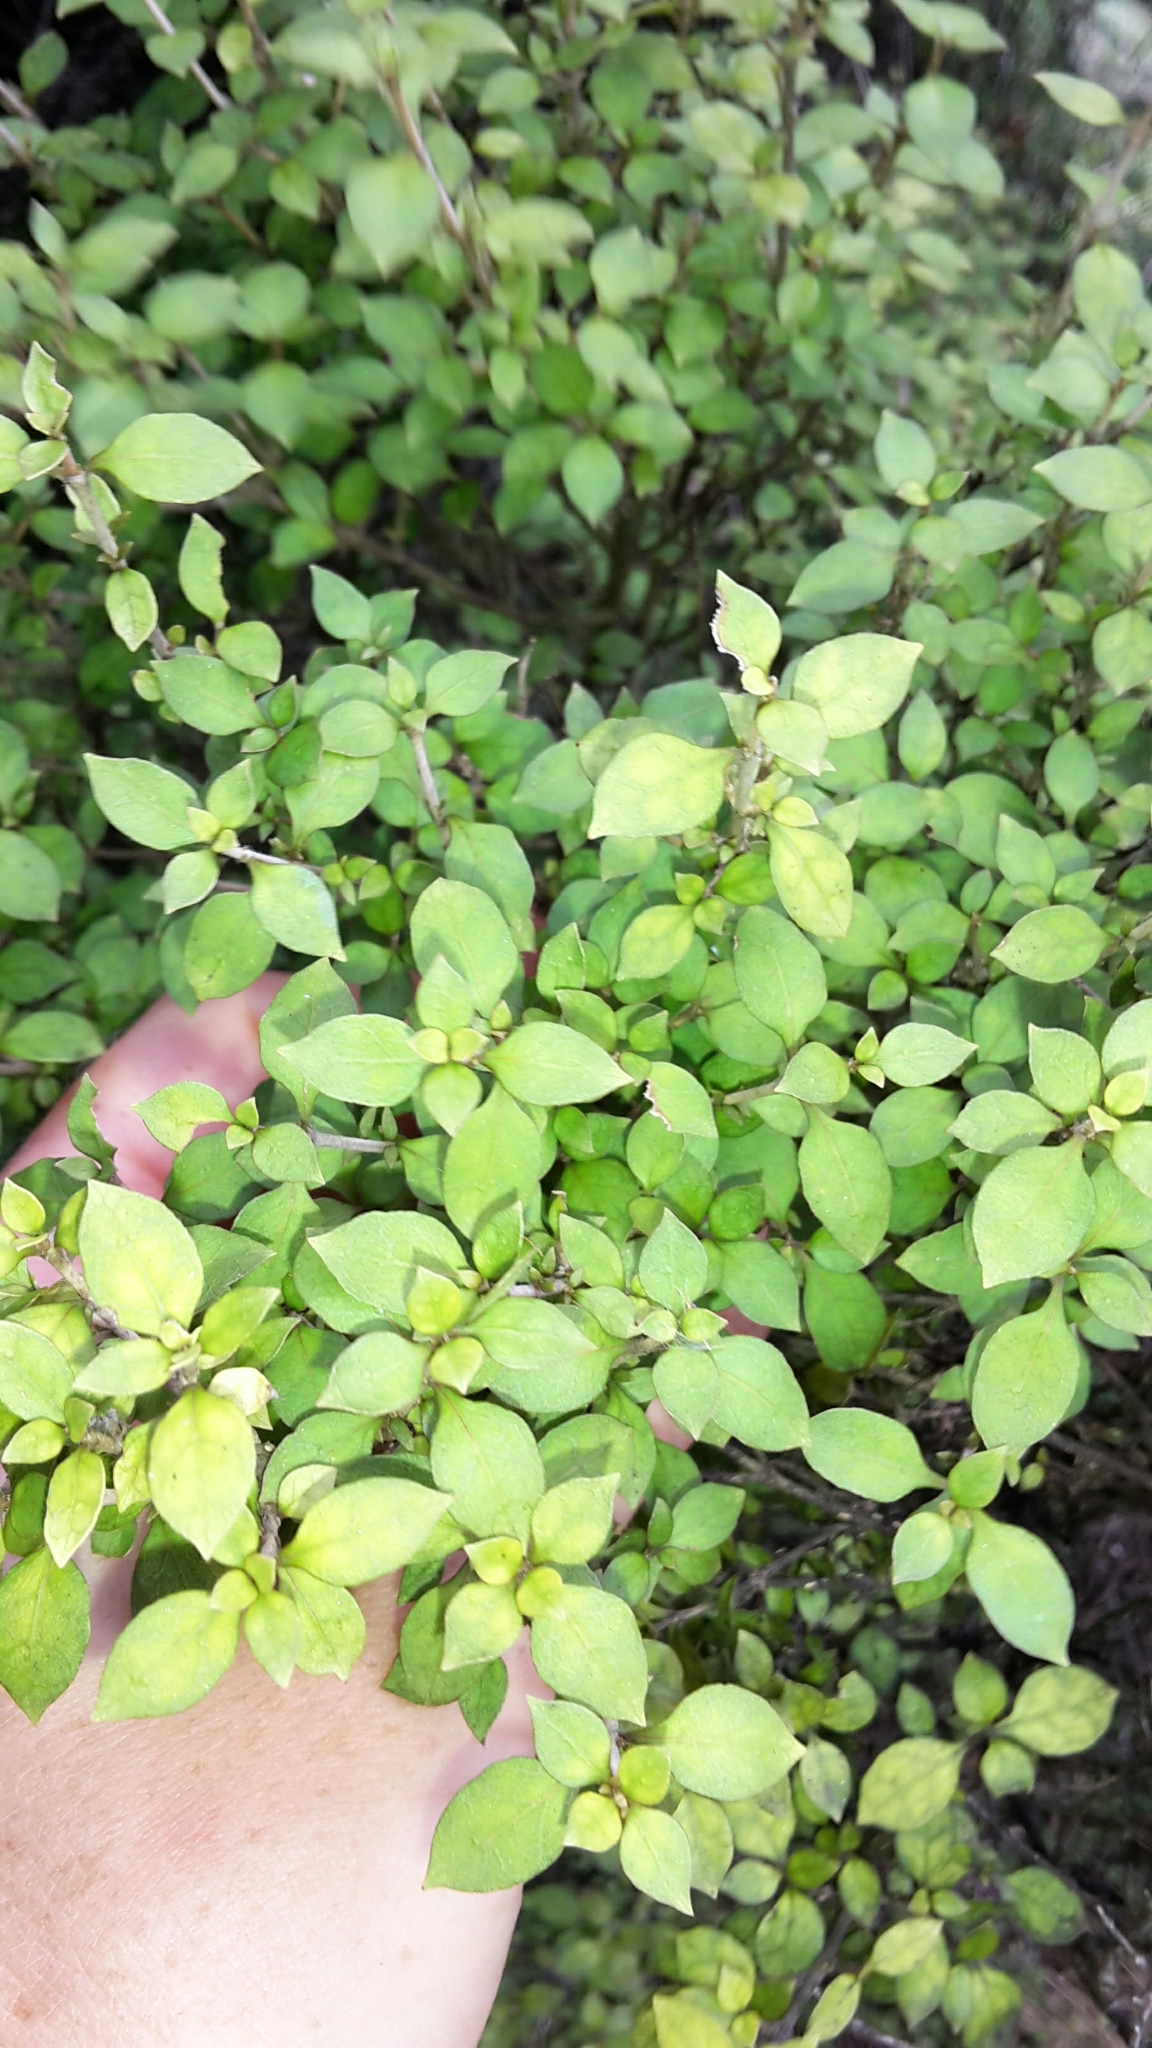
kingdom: Plantae
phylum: Tracheophyta
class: Magnoliopsida
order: Gentianales
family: Rubiaceae
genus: Coprosma
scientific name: Coprosma tenuicaulis
